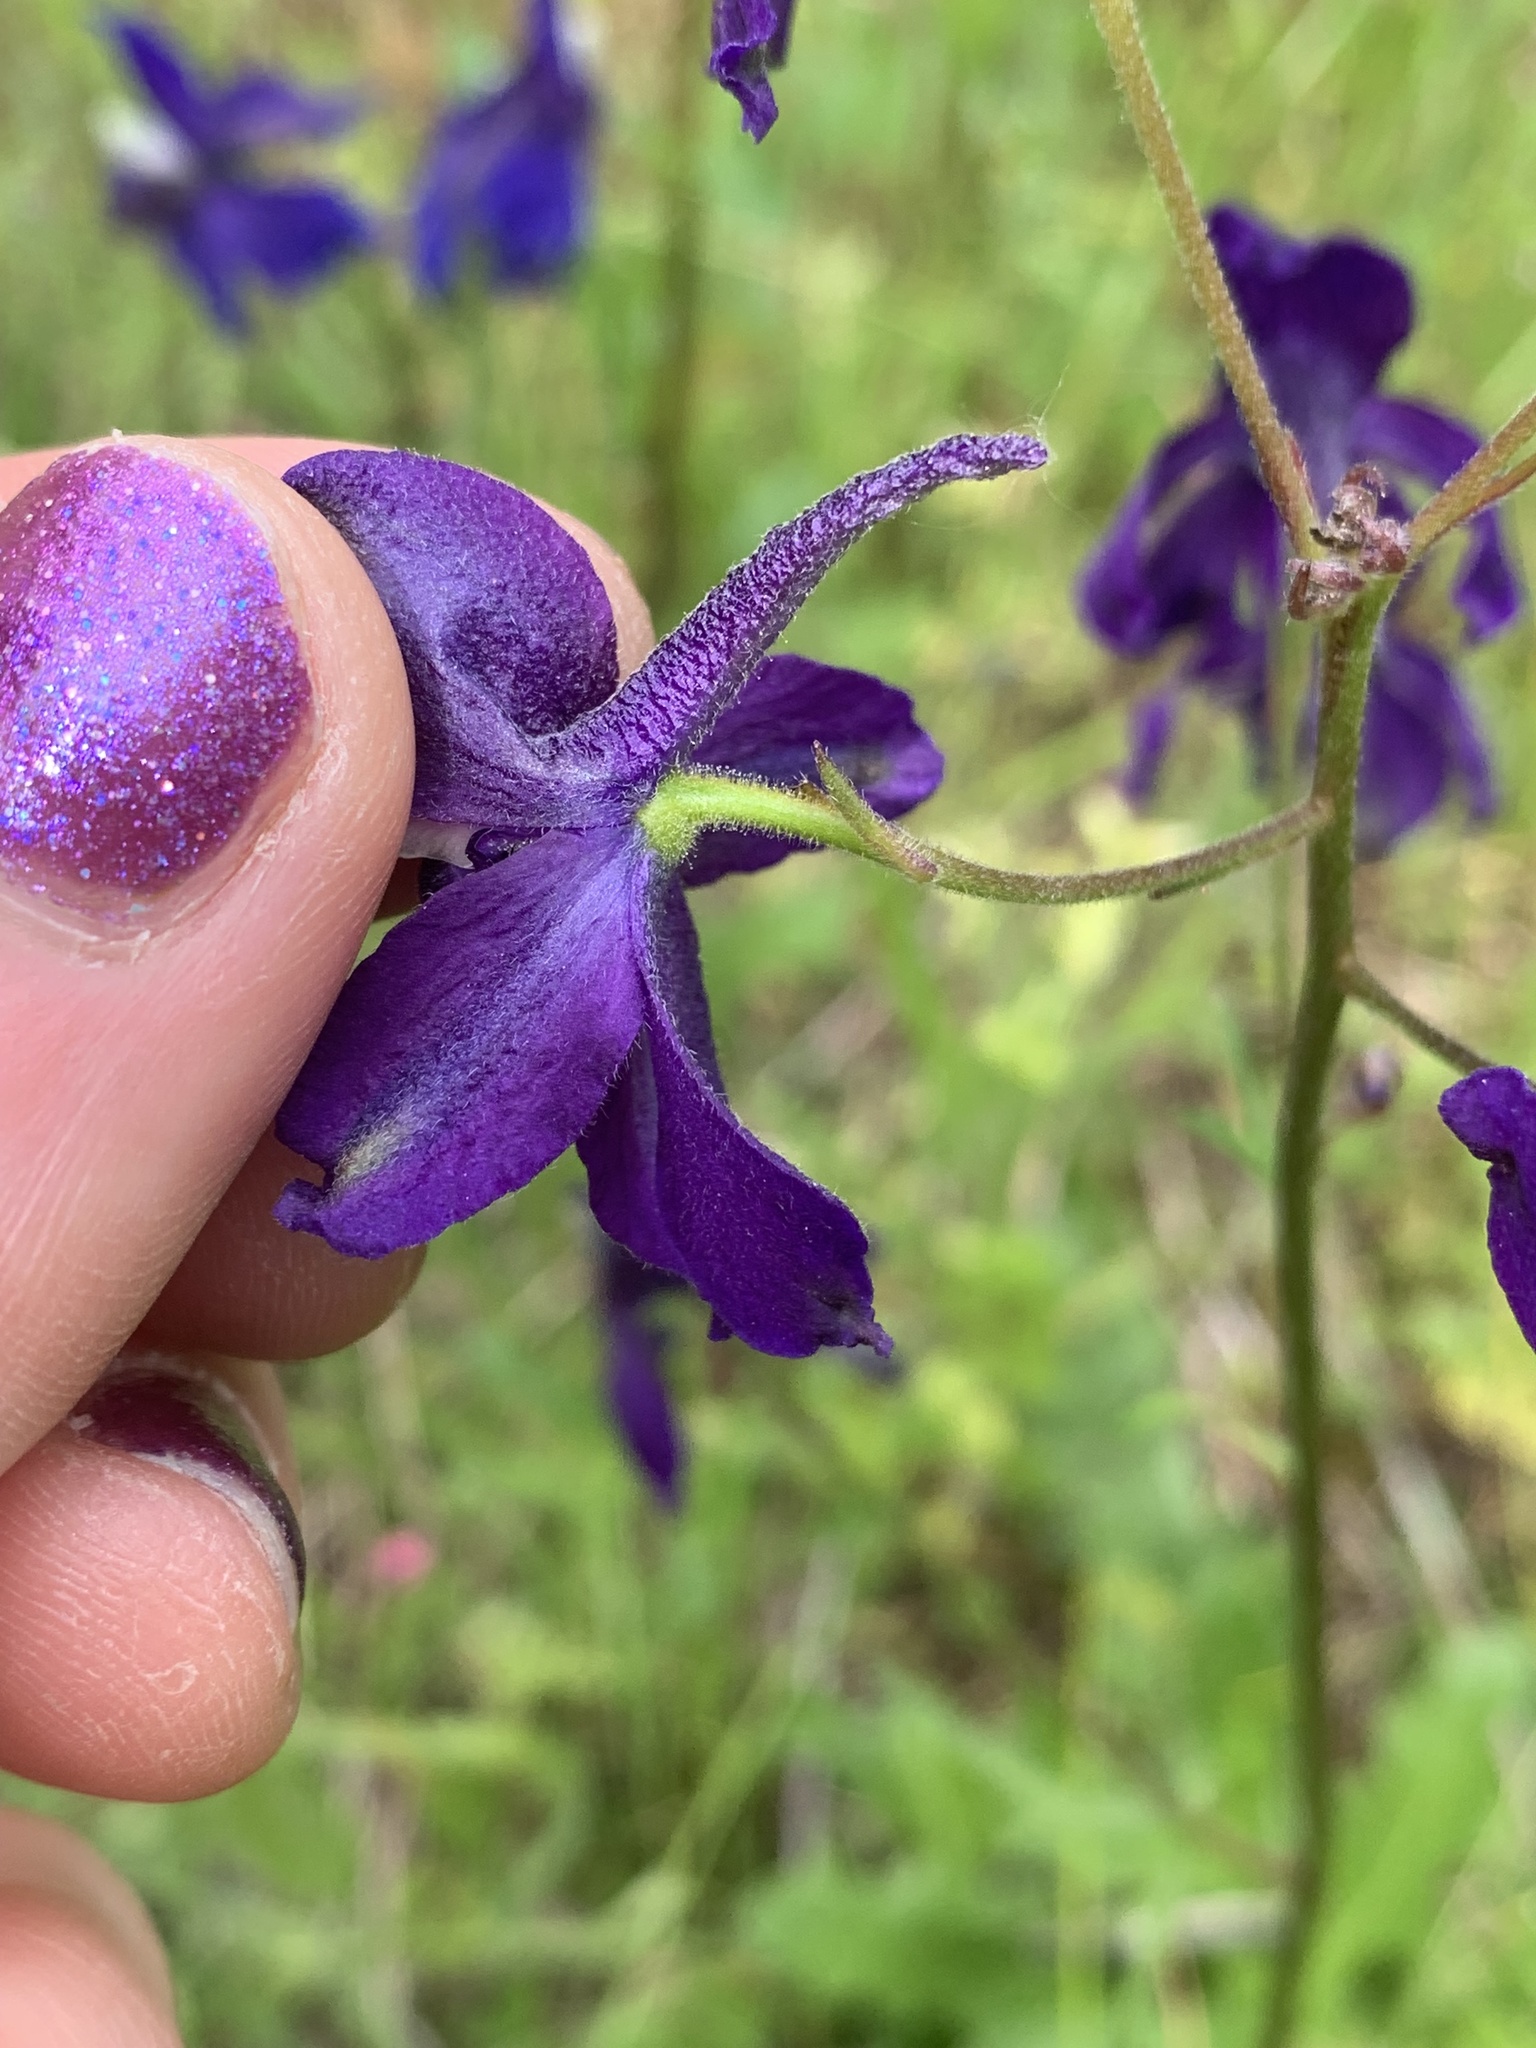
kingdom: Plantae
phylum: Tracheophyta
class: Magnoliopsida
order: Ranunculales
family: Ranunculaceae
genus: Delphinium
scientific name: Delphinium menziesii
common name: Menzies's larkspur
